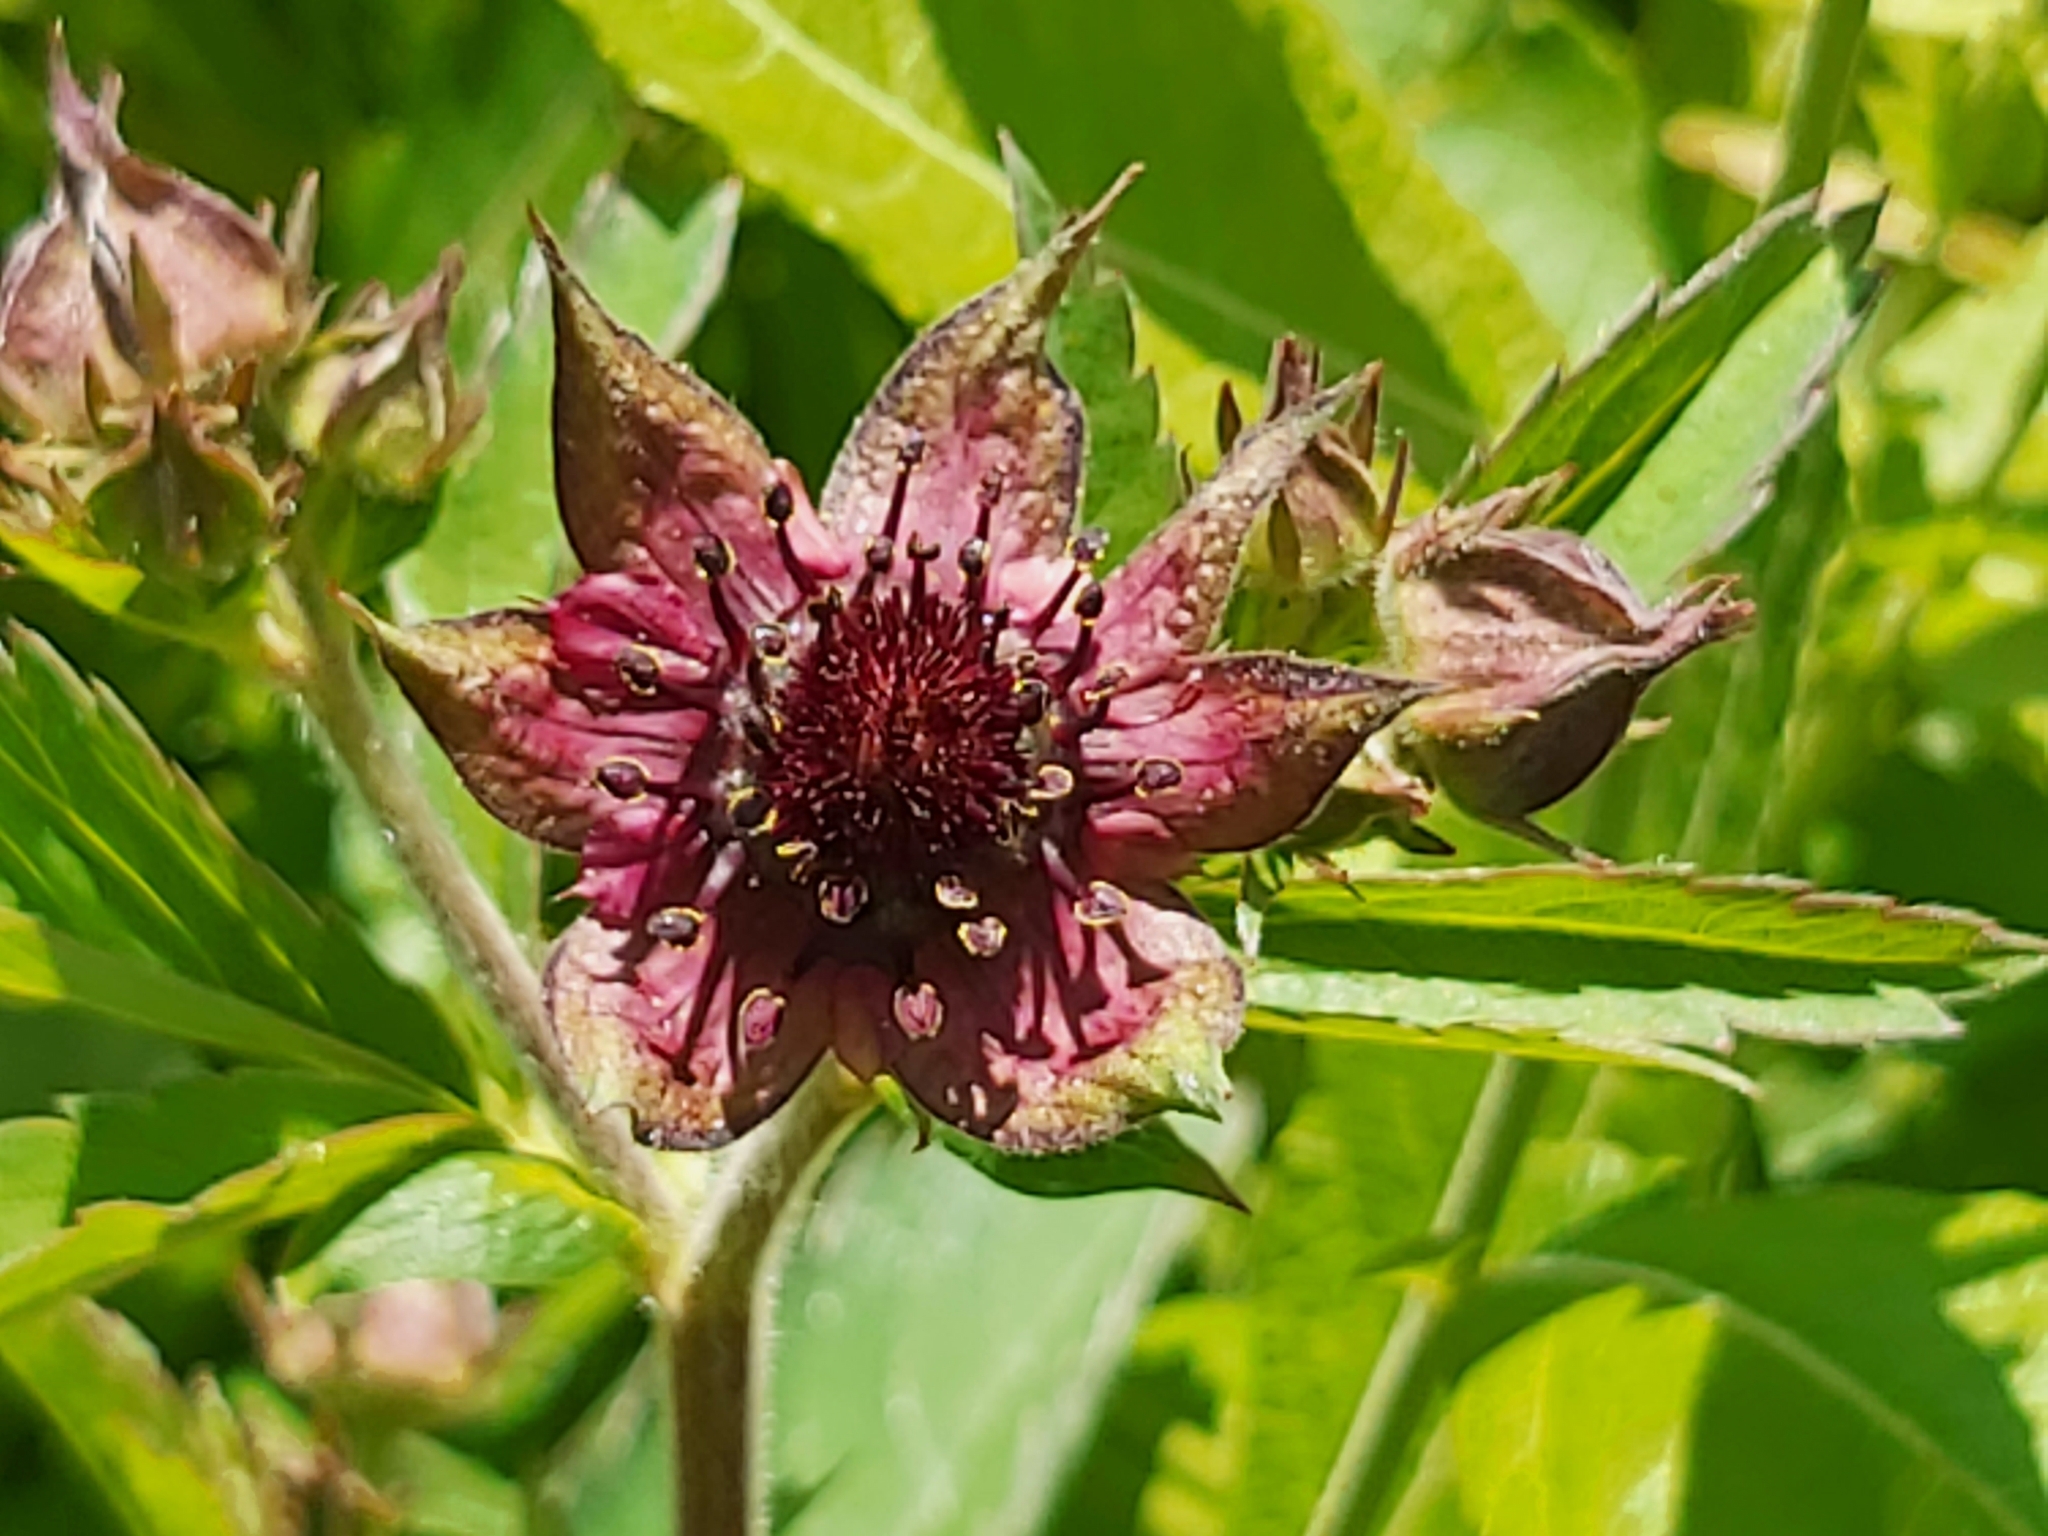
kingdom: Plantae
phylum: Tracheophyta
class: Magnoliopsida
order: Rosales
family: Rosaceae
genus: Comarum
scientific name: Comarum palustre
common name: Marsh cinquefoil
